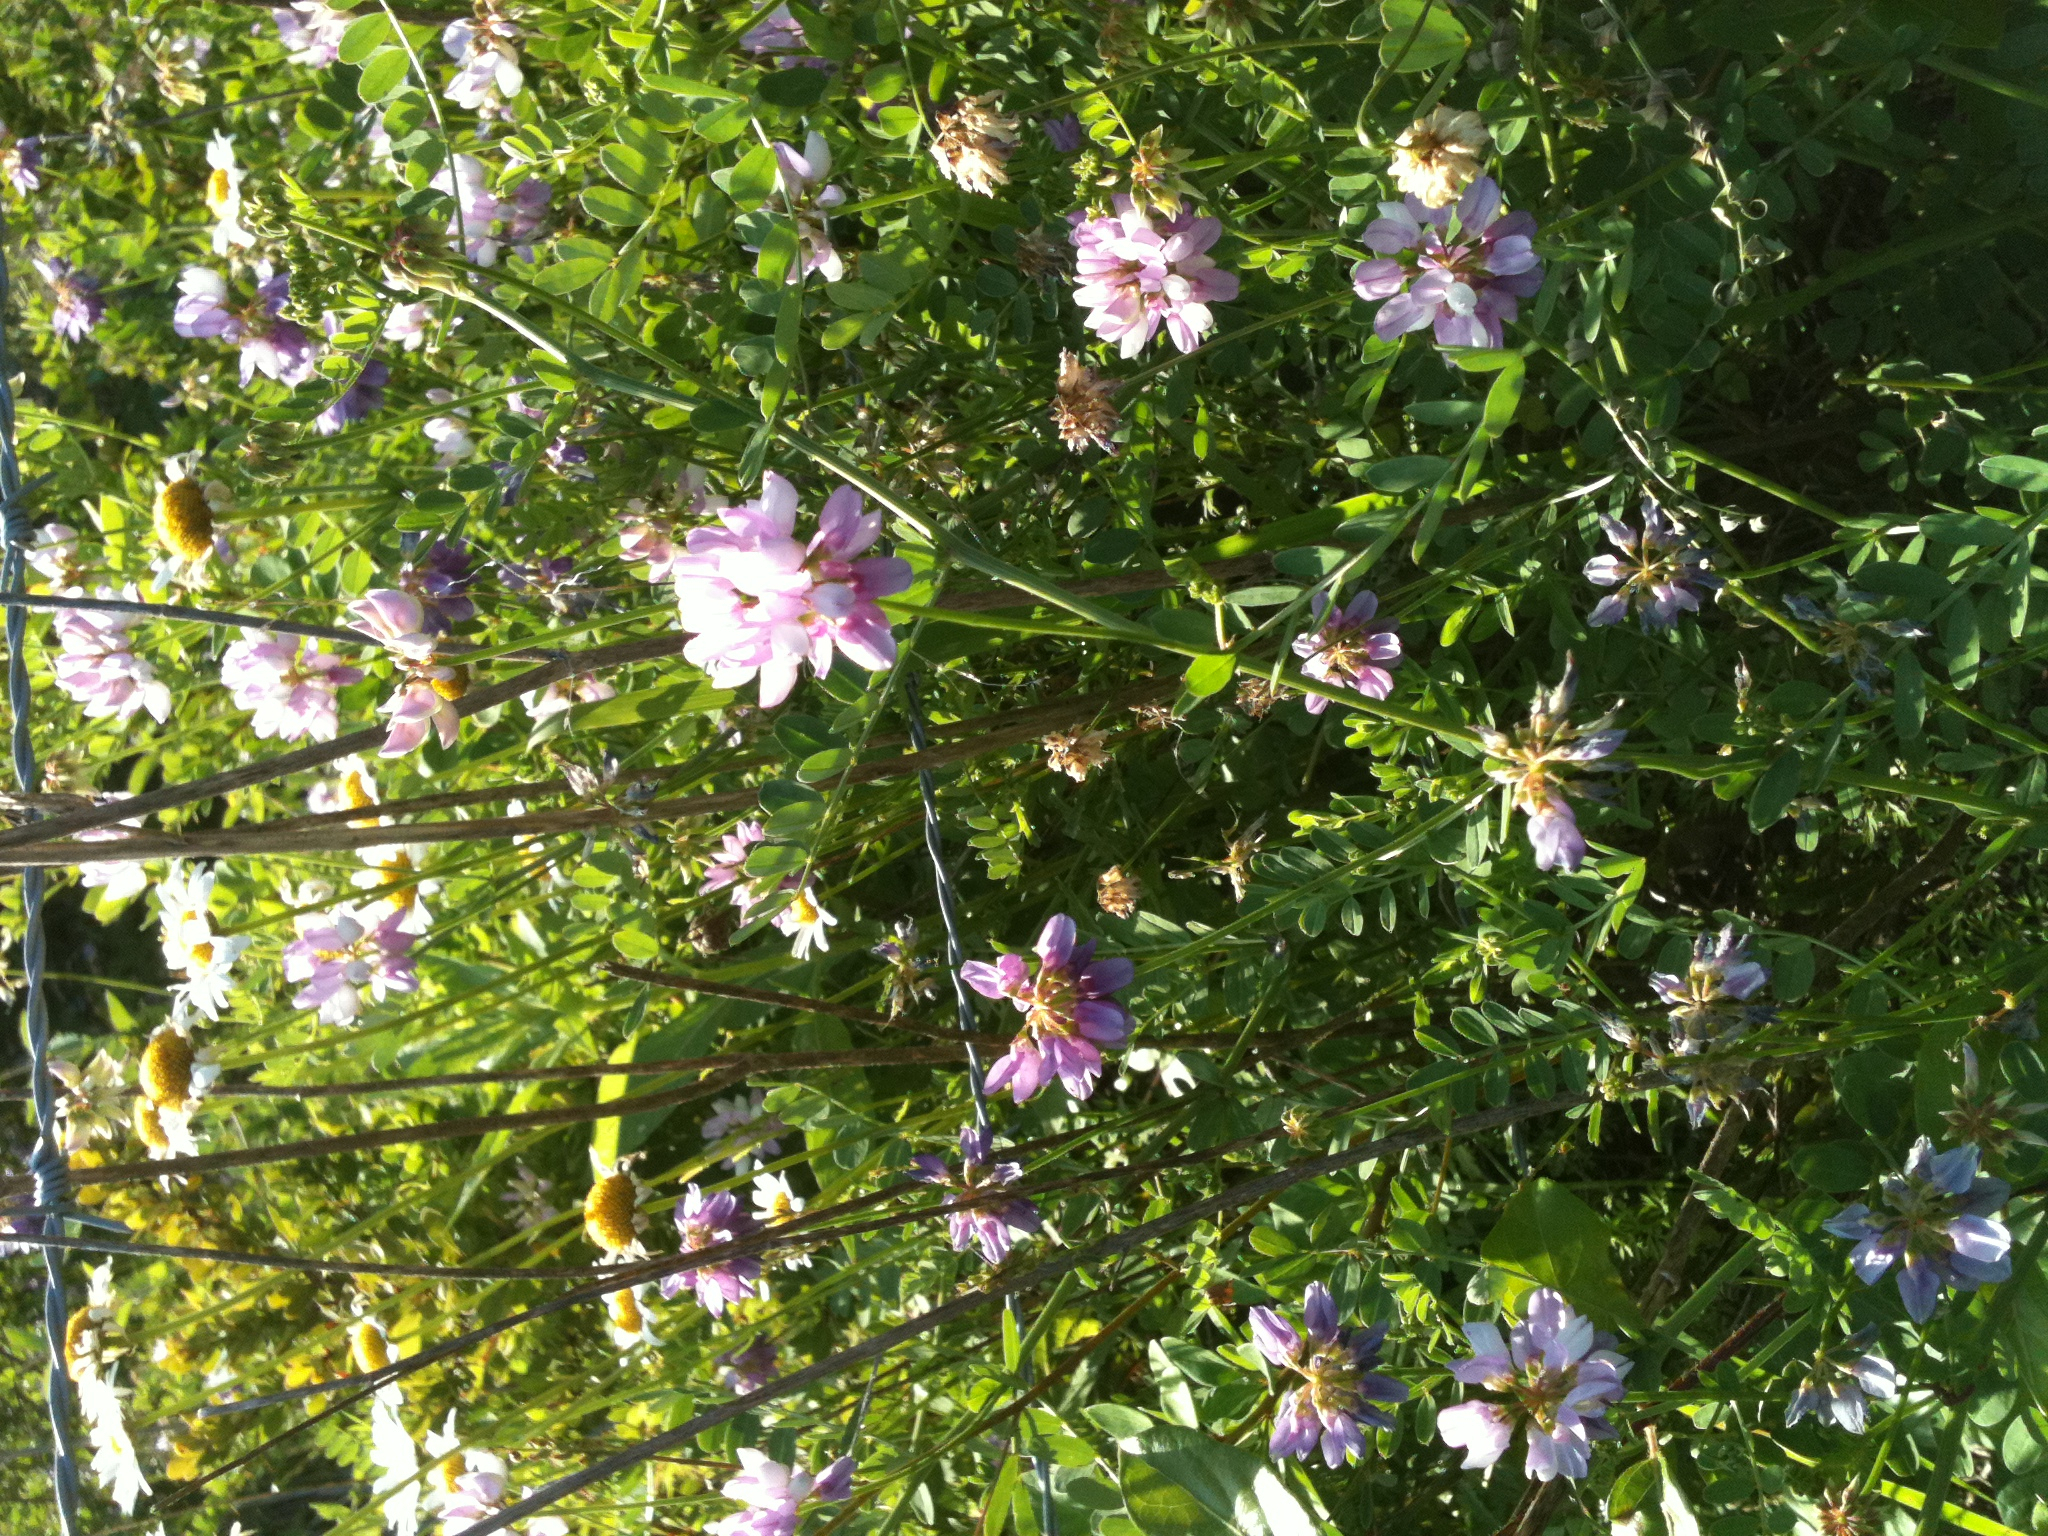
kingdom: Plantae
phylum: Tracheophyta
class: Magnoliopsida
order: Fabales
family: Fabaceae
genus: Coronilla
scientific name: Coronilla varia
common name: Crownvetch
